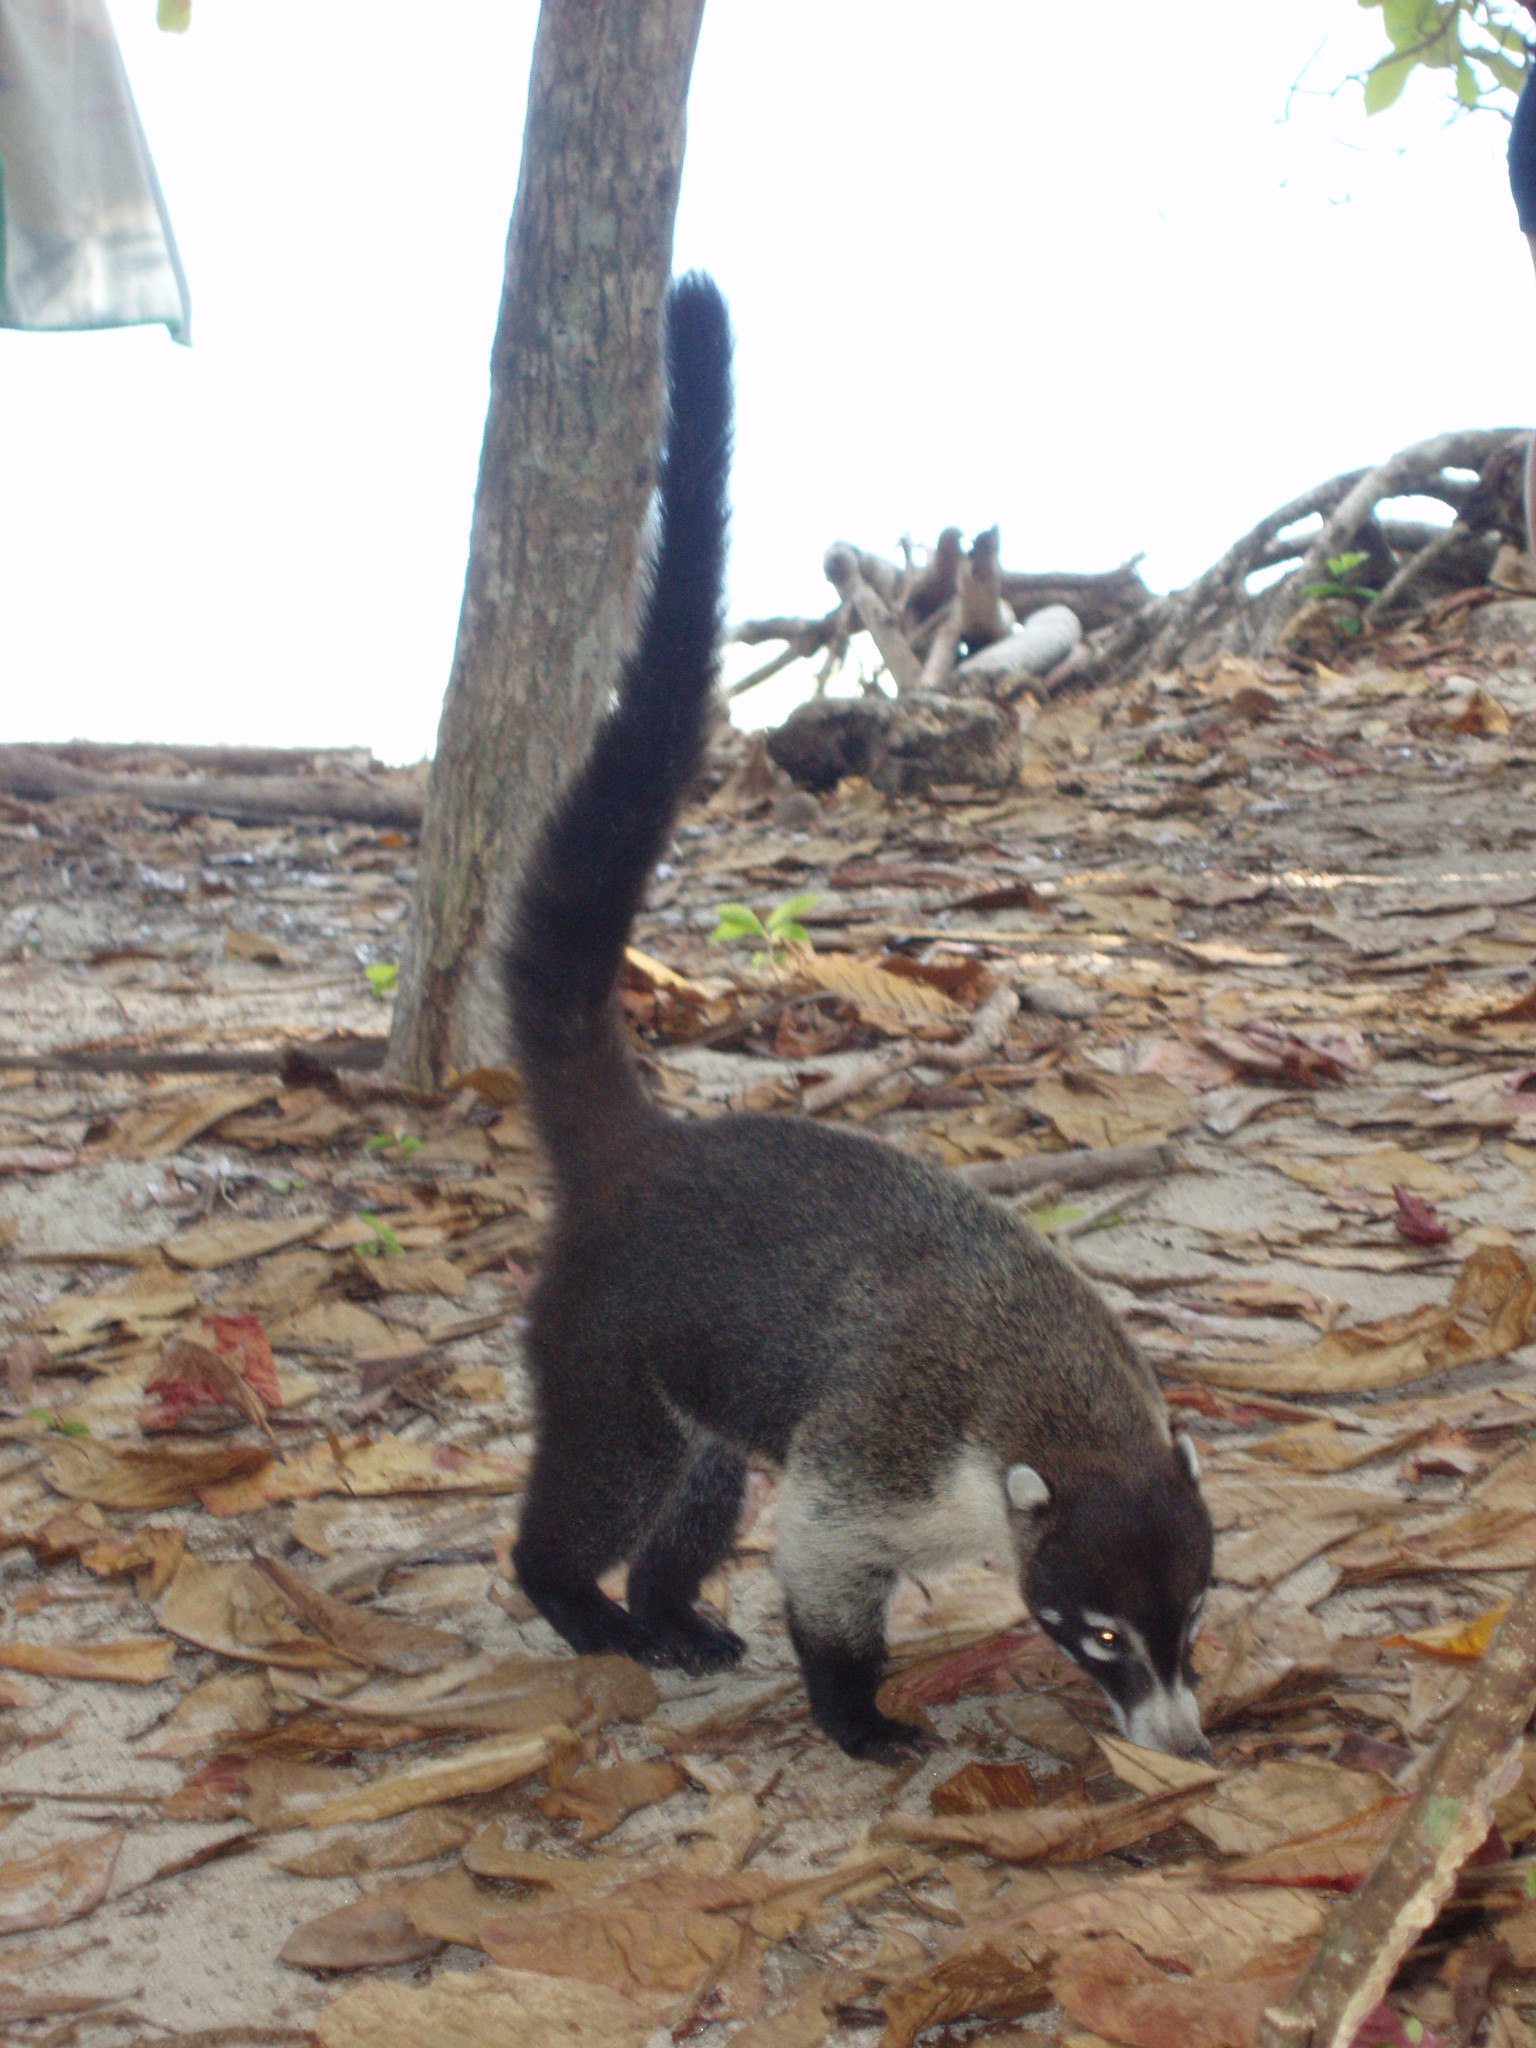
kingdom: Animalia
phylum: Chordata
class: Mammalia
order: Carnivora
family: Procyonidae
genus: Nasua
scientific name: Nasua narica
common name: White-nosed coati
